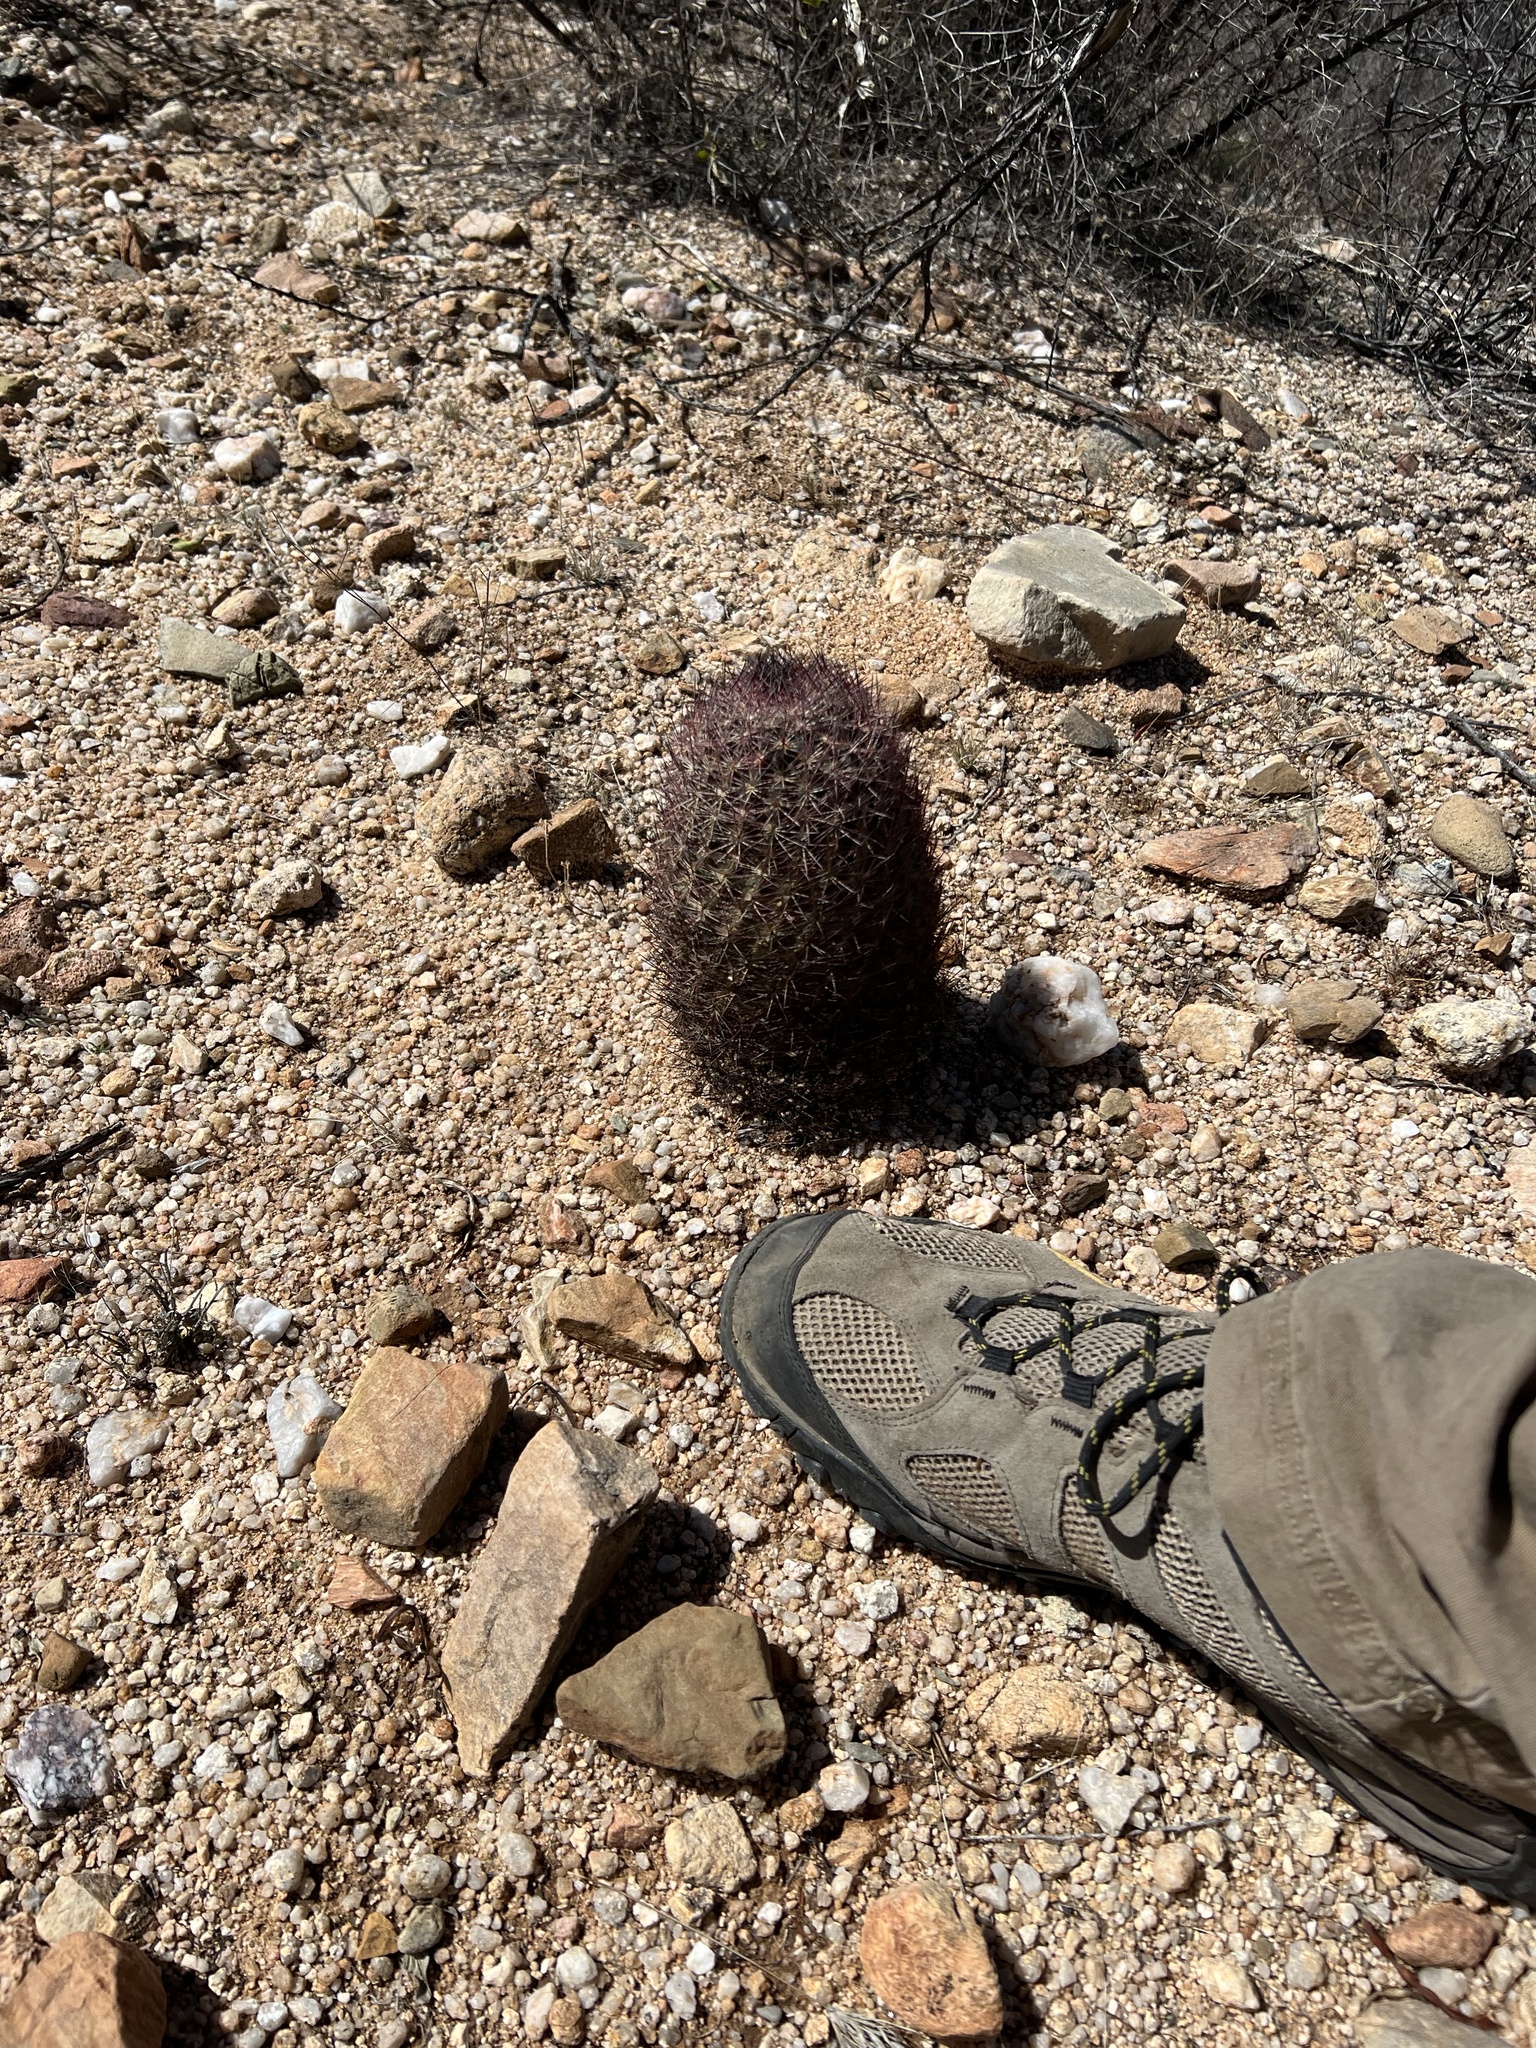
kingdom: Plantae
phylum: Tracheophyta
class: Magnoliopsida
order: Caryophyllales
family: Cactaceae
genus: Sclerocactus
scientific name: Sclerocactus johnsonii
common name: Eight-spine fishhook cactus
